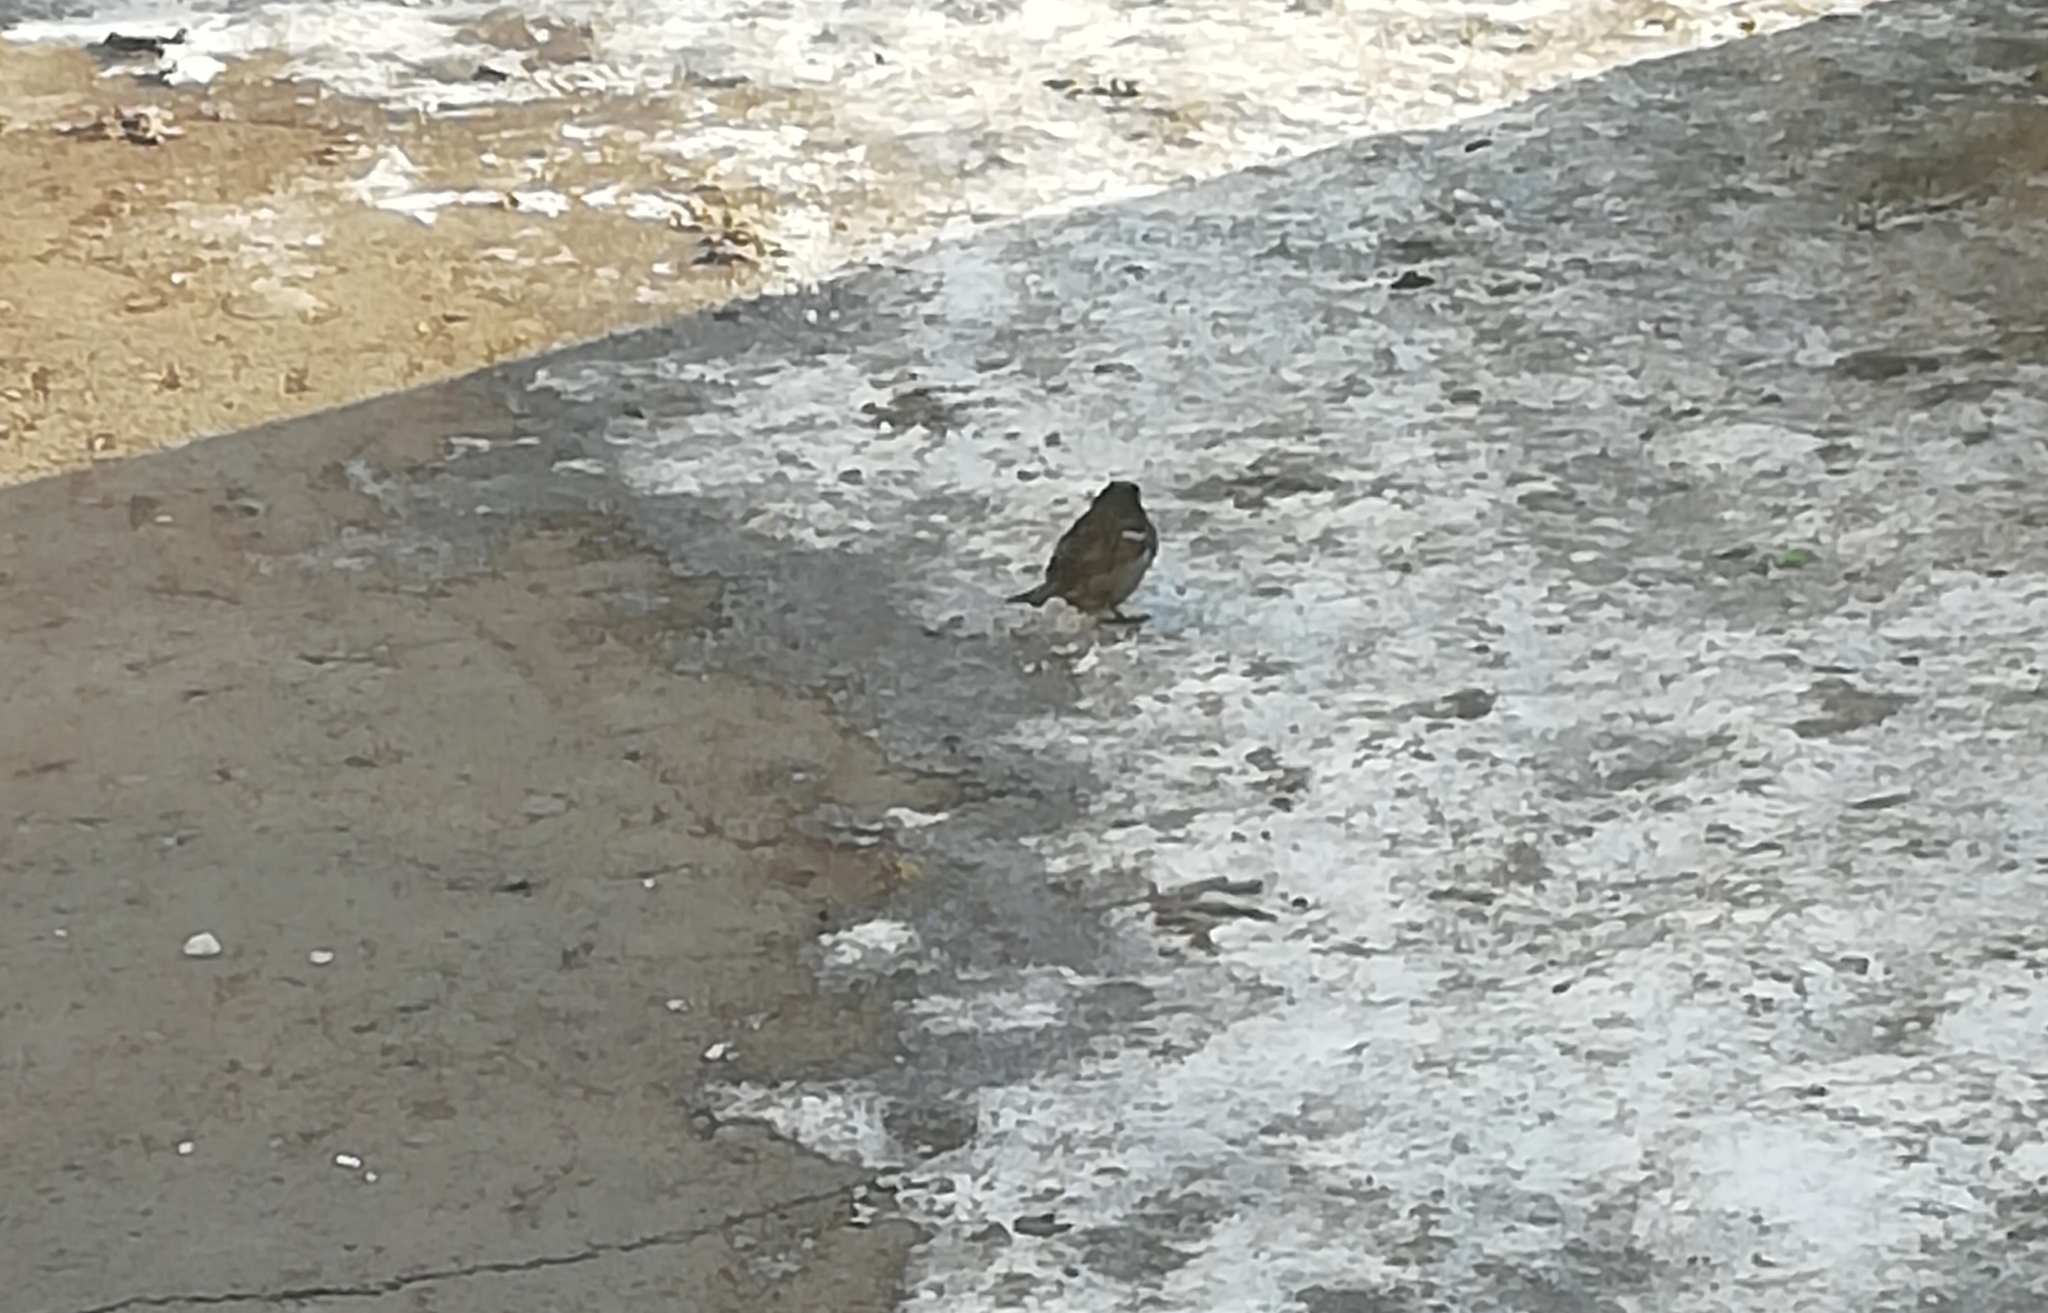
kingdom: Animalia
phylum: Chordata
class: Aves
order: Passeriformes
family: Passeridae
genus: Passer
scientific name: Passer domesticus
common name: House sparrow
